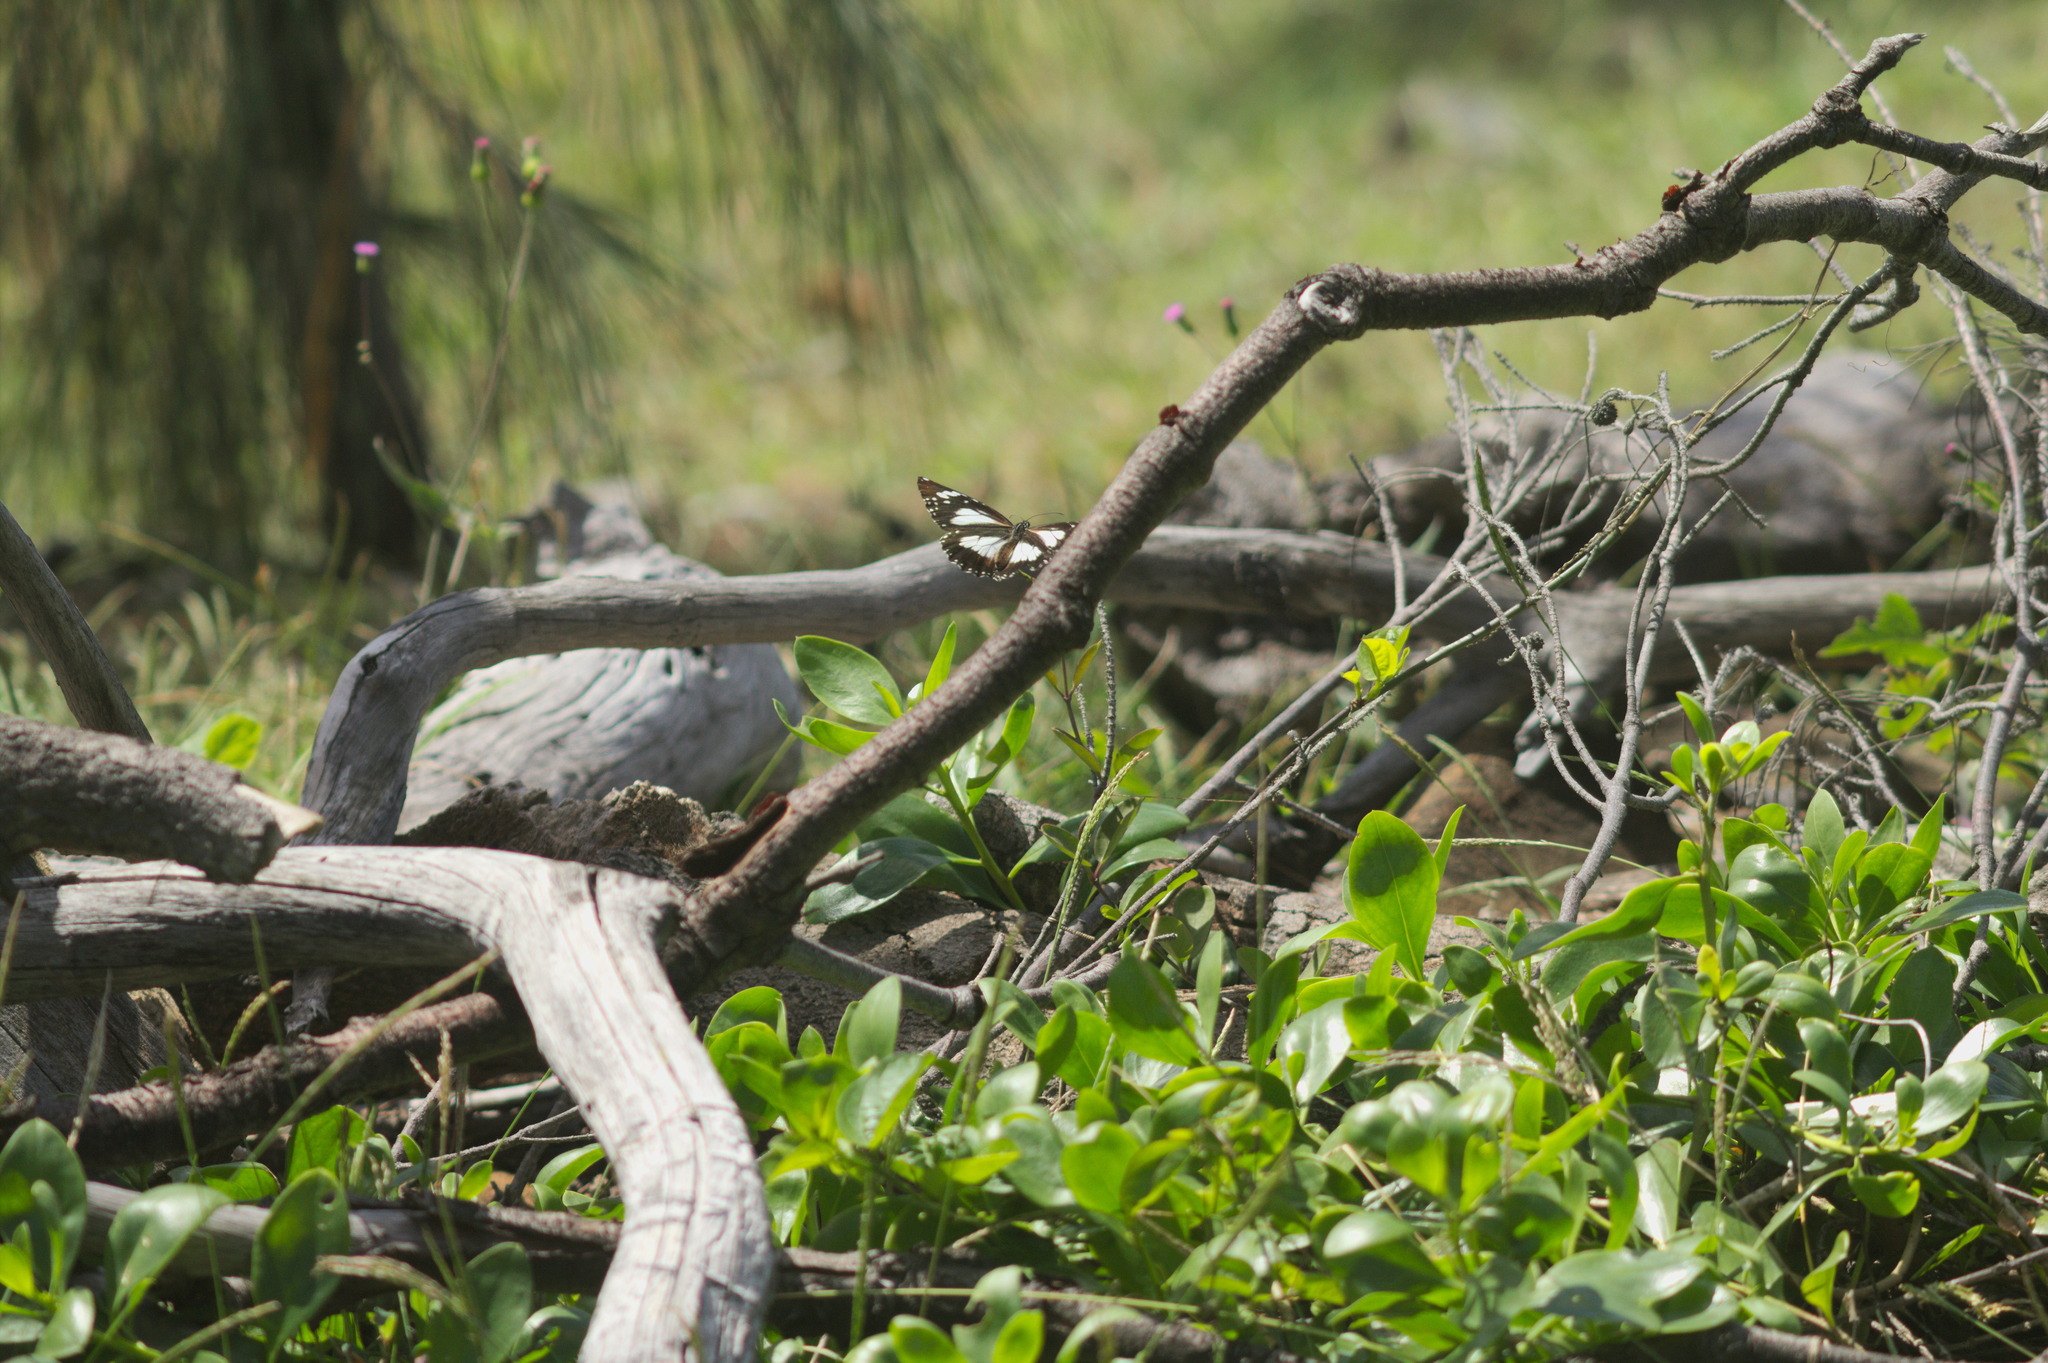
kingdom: Animalia
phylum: Arthropoda
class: Insecta
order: Lepidoptera
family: Nymphalidae
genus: Danaus
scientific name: Danaus affinis
